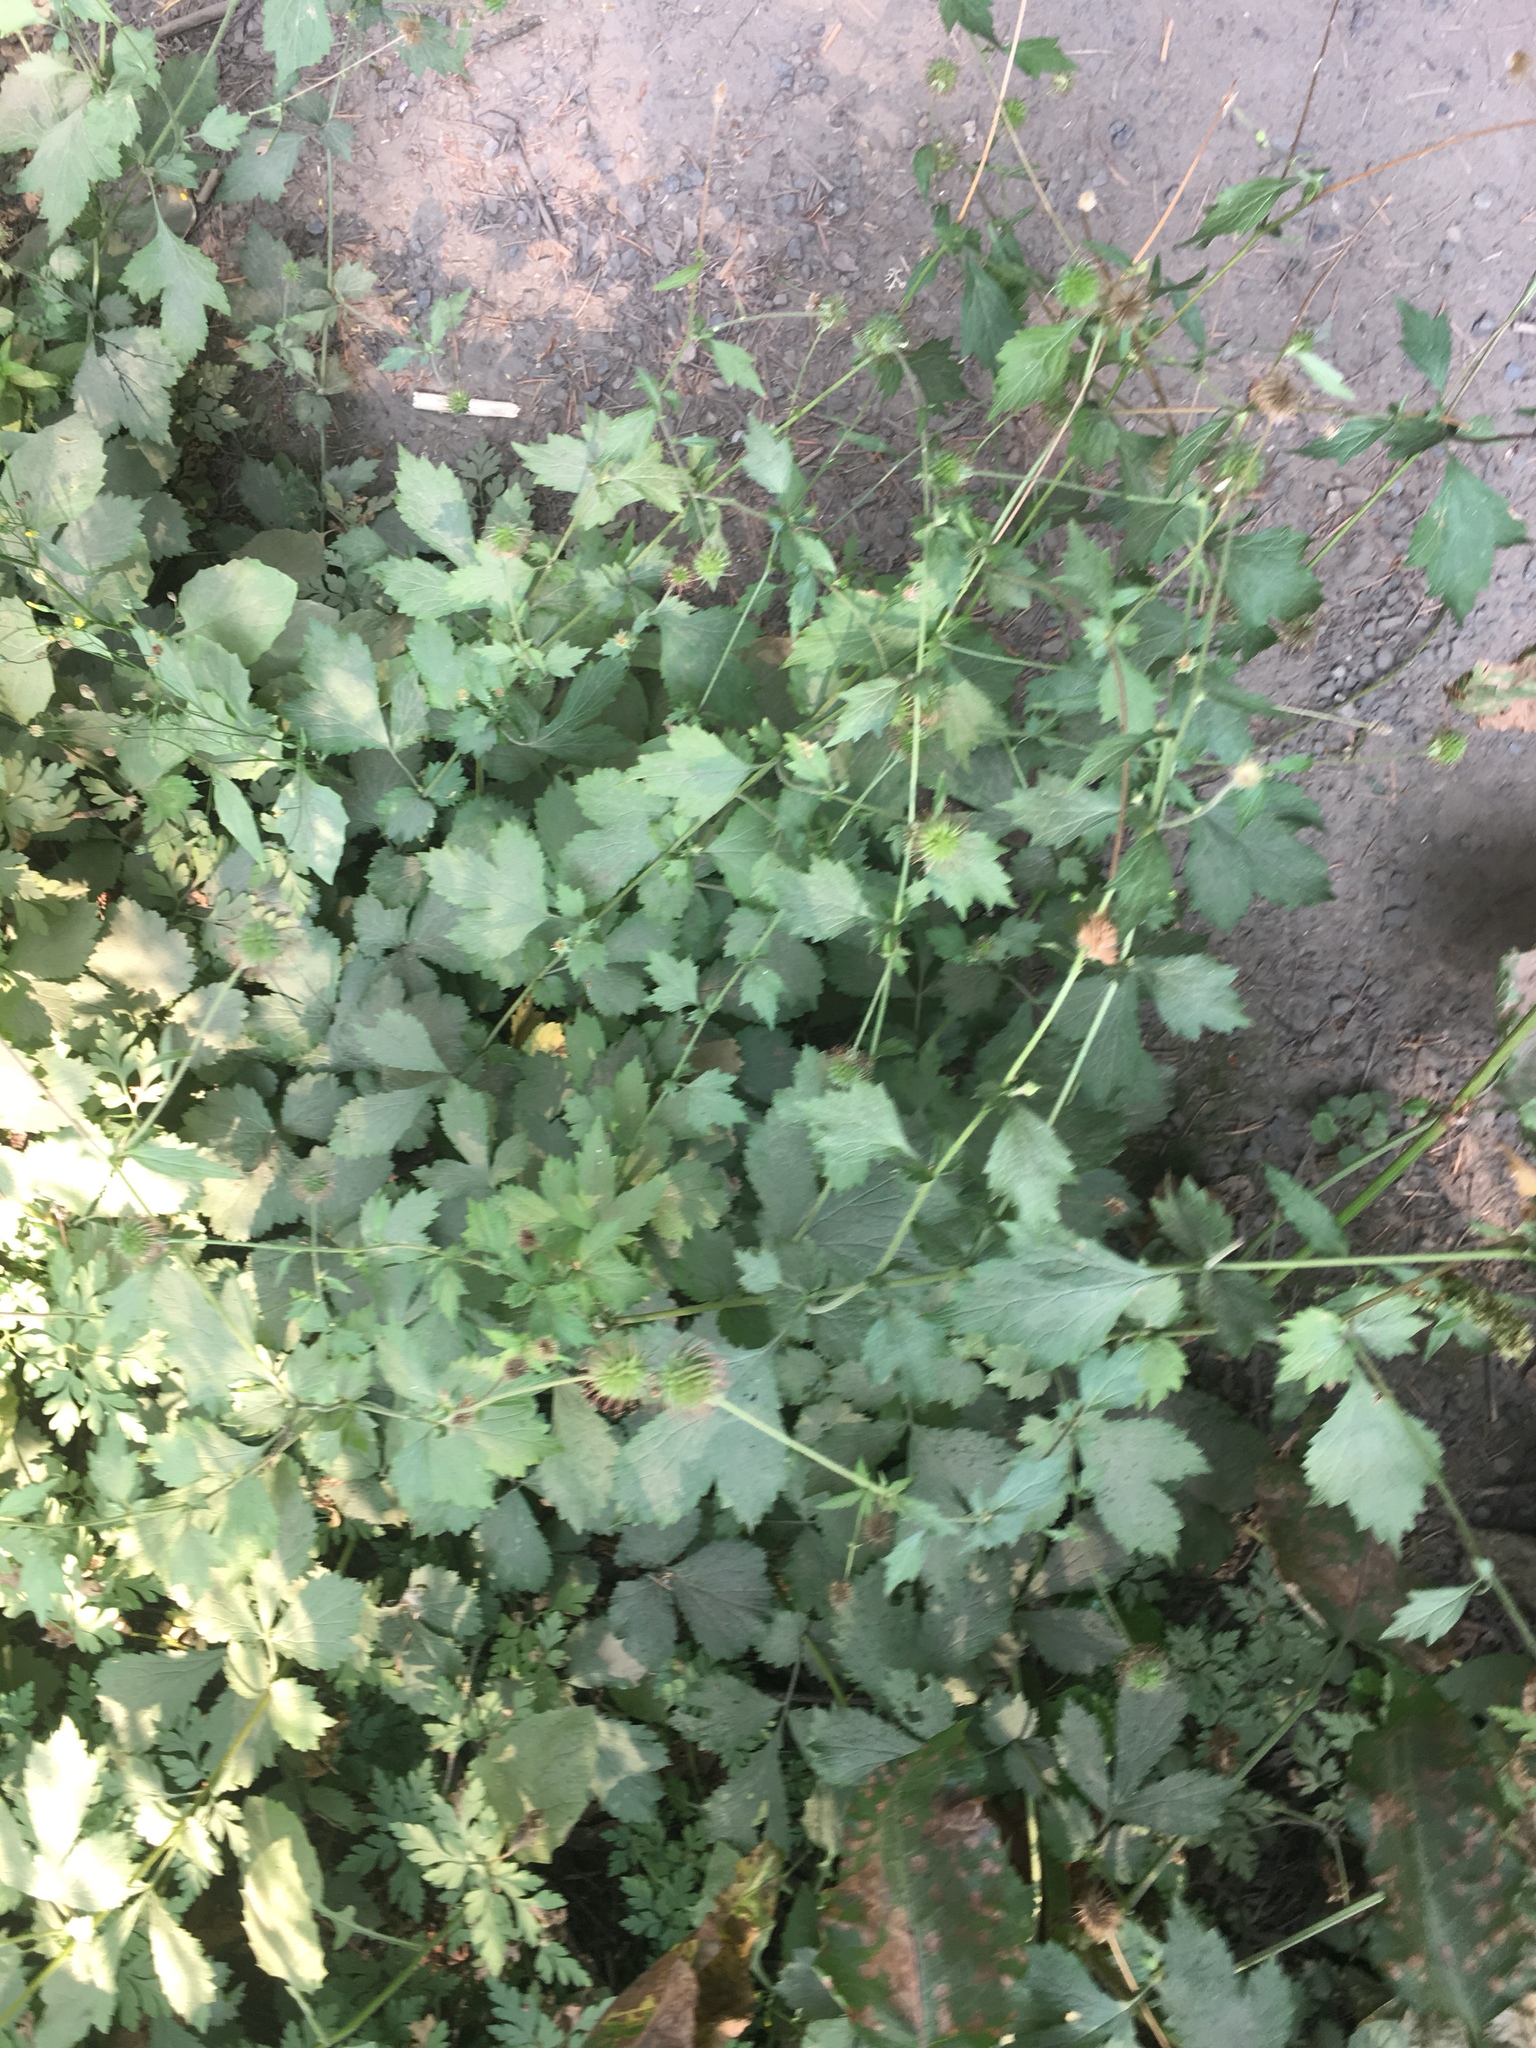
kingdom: Plantae
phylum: Tracheophyta
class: Magnoliopsida
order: Rosales
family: Rosaceae
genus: Geum
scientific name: Geum urbanum
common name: Wood avens
